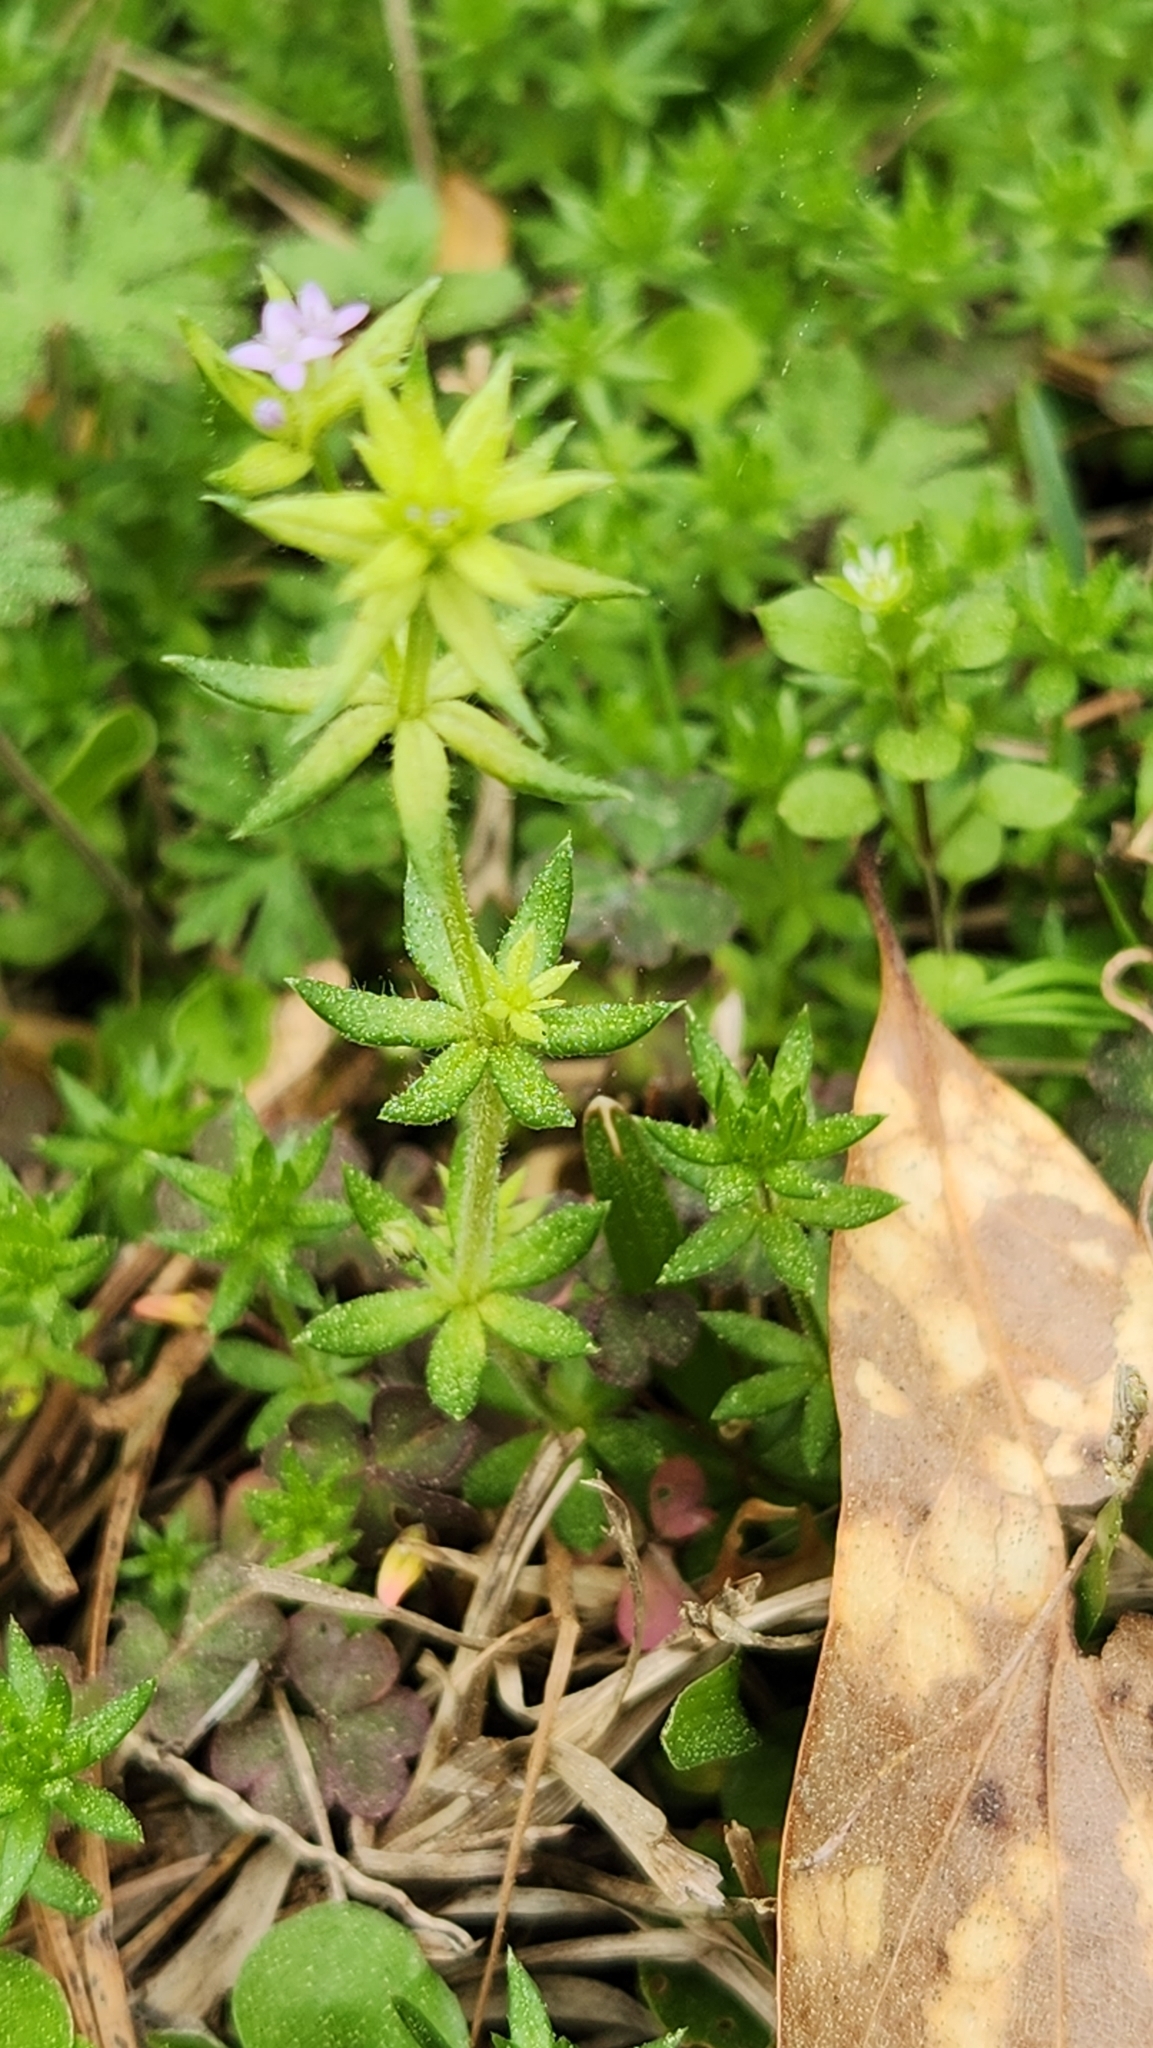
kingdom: Plantae
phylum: Tracheophyta
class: Magnoliopsida
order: Gentianales
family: Rubiaceae
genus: Sherardia
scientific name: Sherardia arvensis
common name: Field madder
